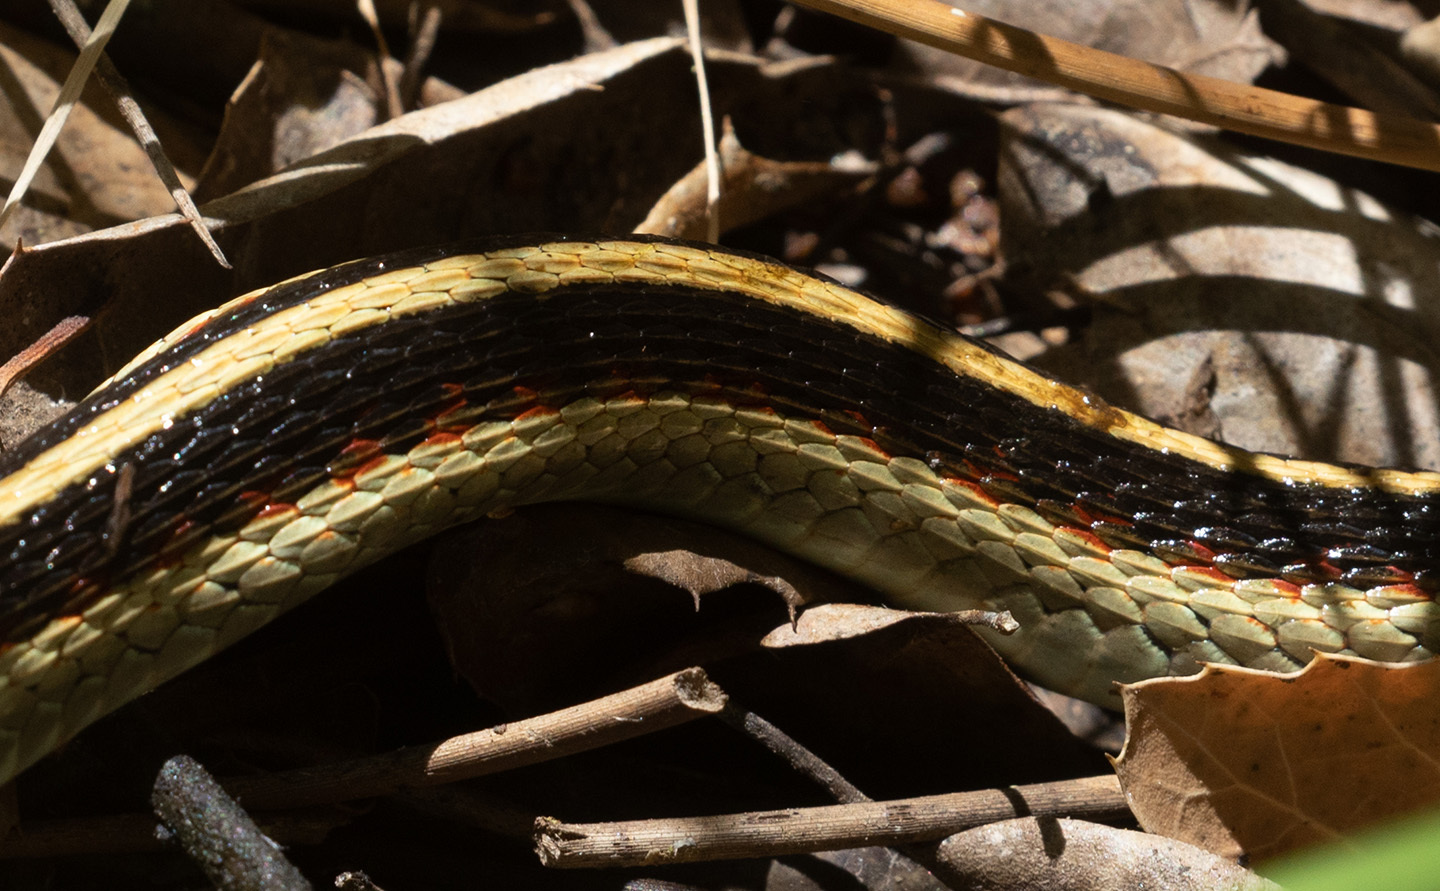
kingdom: Animalia
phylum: Chordata
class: Squamata
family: Colubridae
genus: Thamnophis
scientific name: Thamnophis sirtalis
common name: Common garter snake
